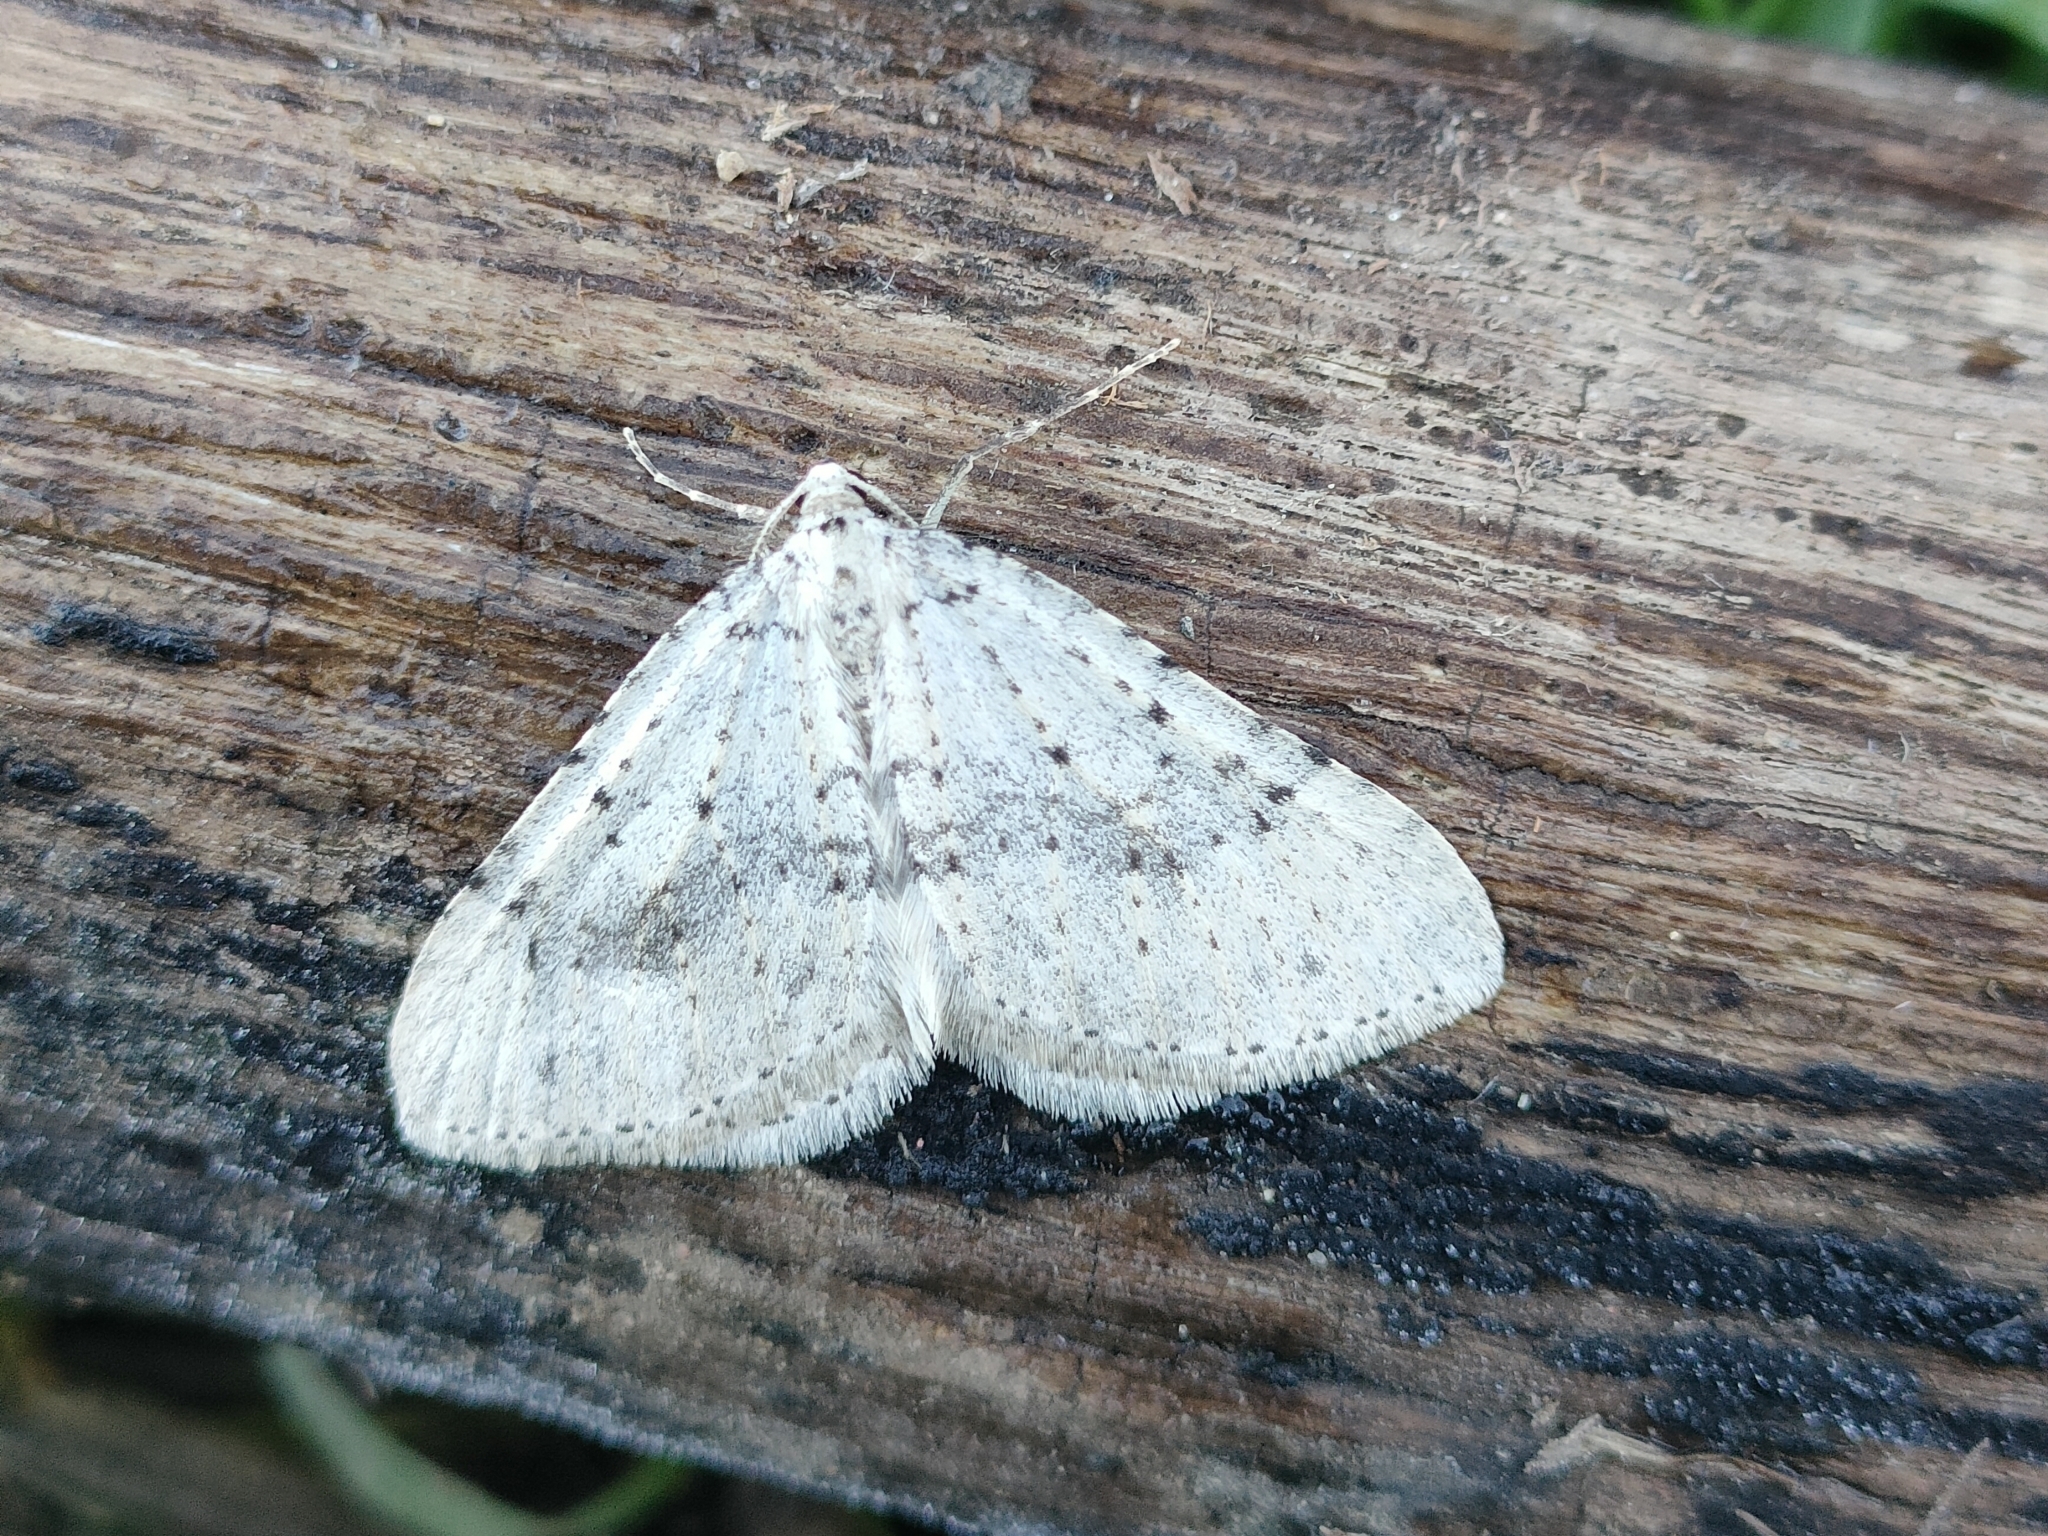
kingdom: Animalia
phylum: Arthropoda
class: Insecta
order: Lepidoptera
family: Geometridae
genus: Colostygia
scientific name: Colostygia multistrigaria
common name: Mottled grey
